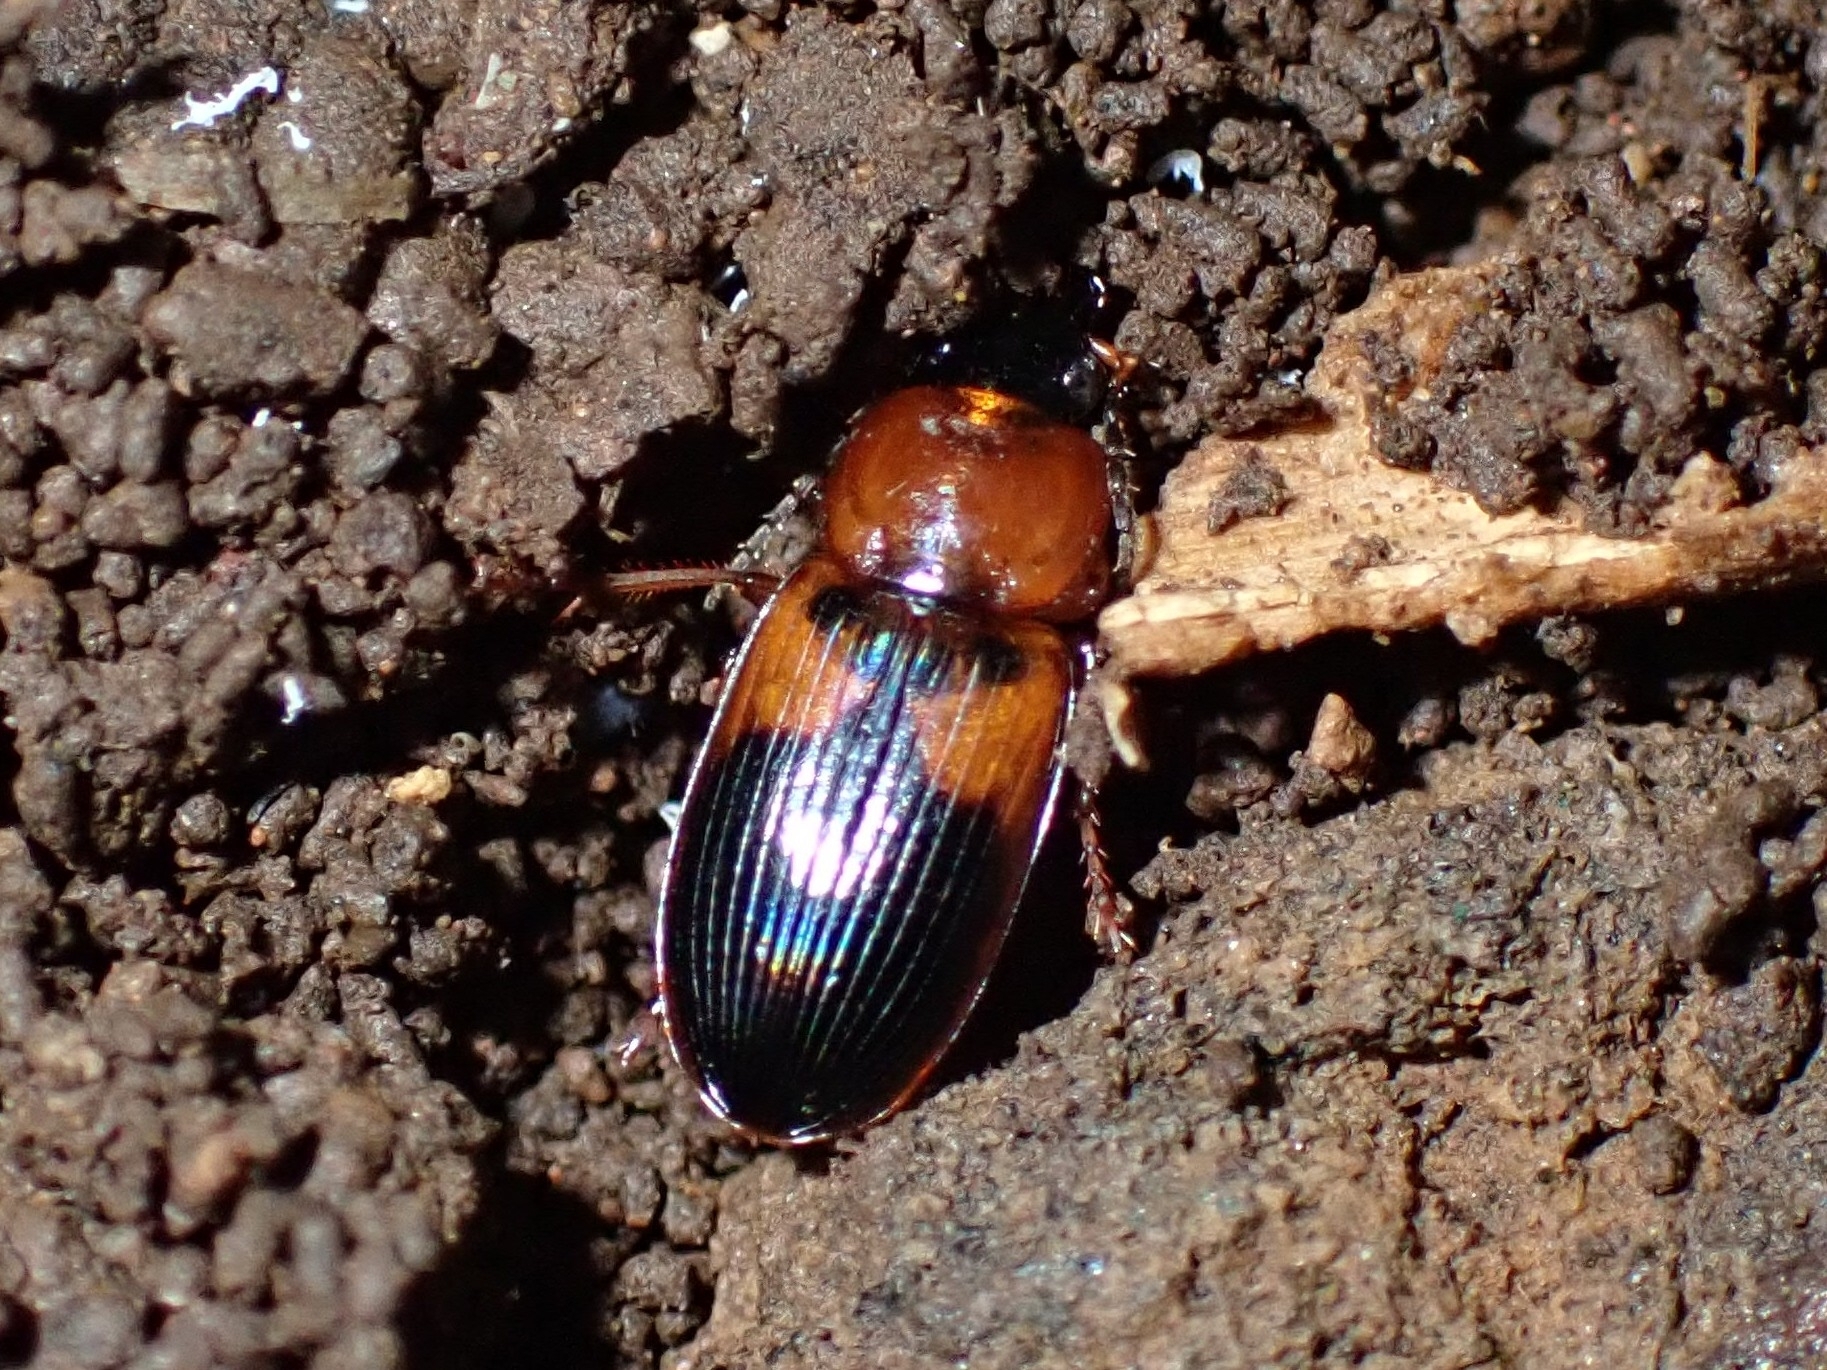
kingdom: Animalia
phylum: Arthropoda
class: Insecta
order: Coleoptera
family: Carabidae
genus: Stenolophus
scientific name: Stenolophus teutonus
